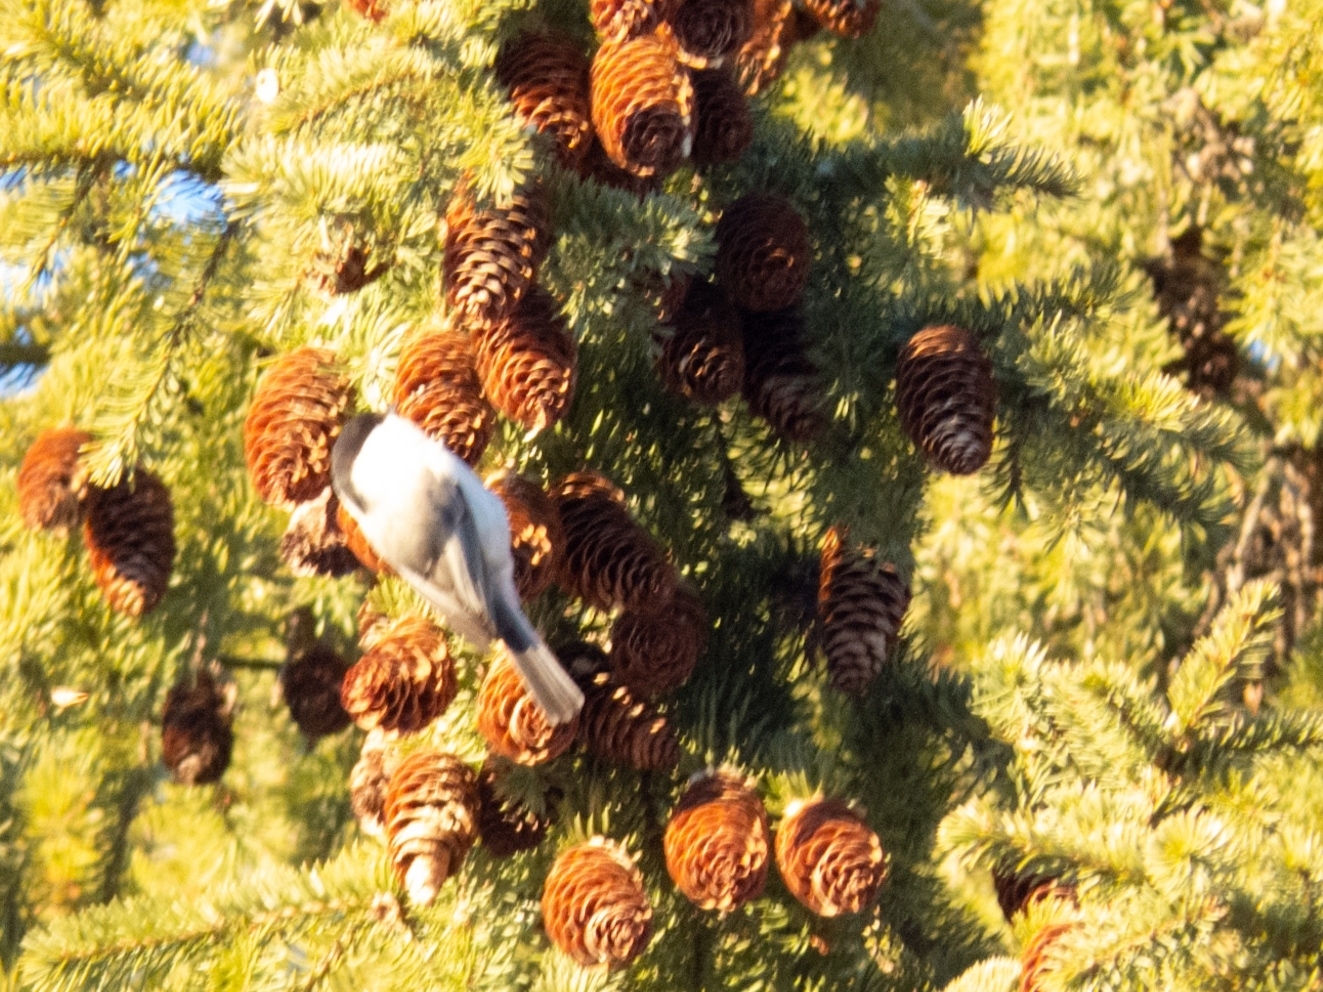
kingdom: Animalia
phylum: Chordata
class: Aves
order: Passeriformes
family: Paridae
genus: Poecile
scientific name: Poecile montanus
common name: Willow tit
